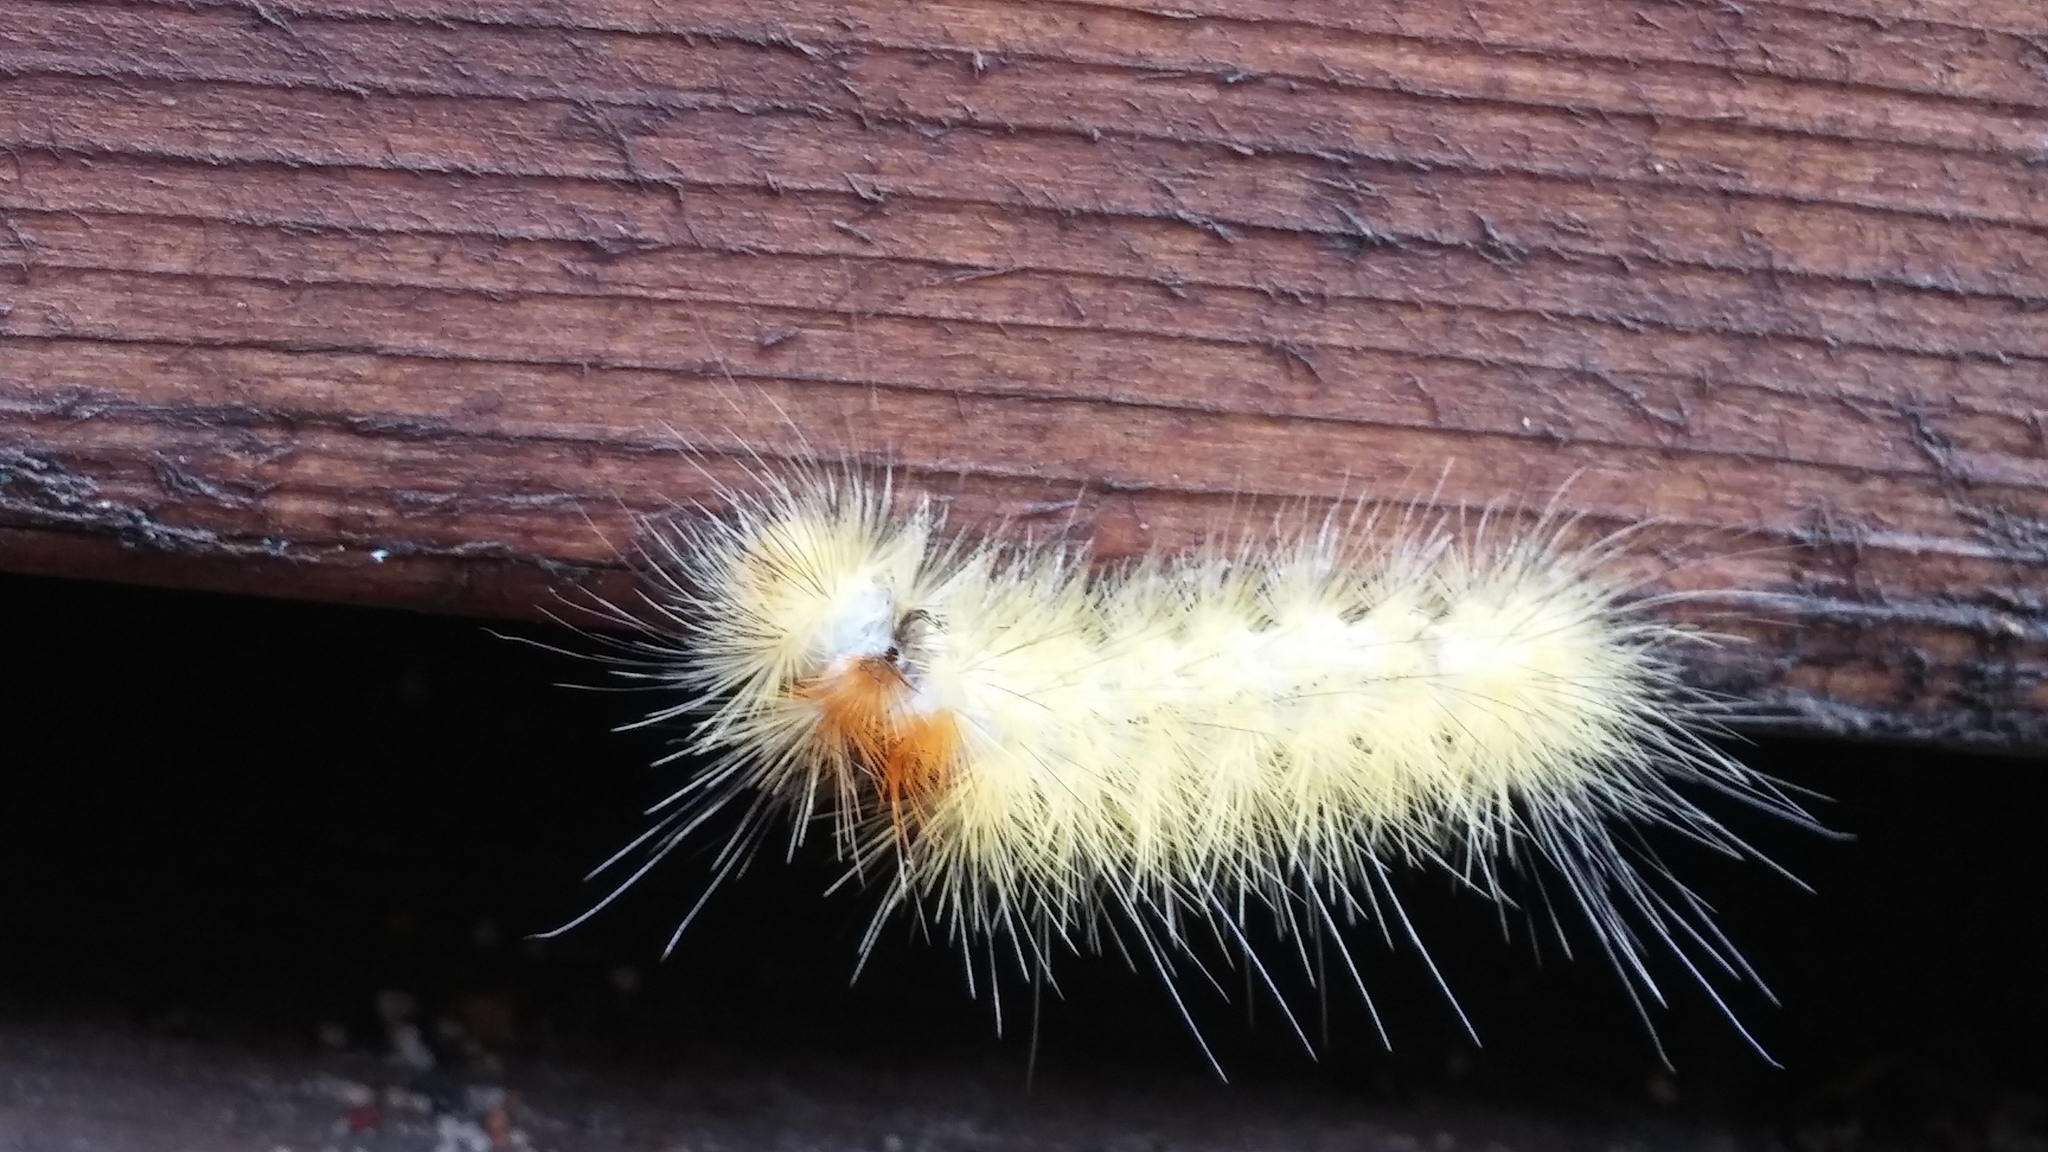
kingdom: Animalia
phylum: Arthropoda
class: Insecta
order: Lepidoptera
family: Erebidae
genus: Spilosoma
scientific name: Spilosoma virginica
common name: Virginia tiger moth
